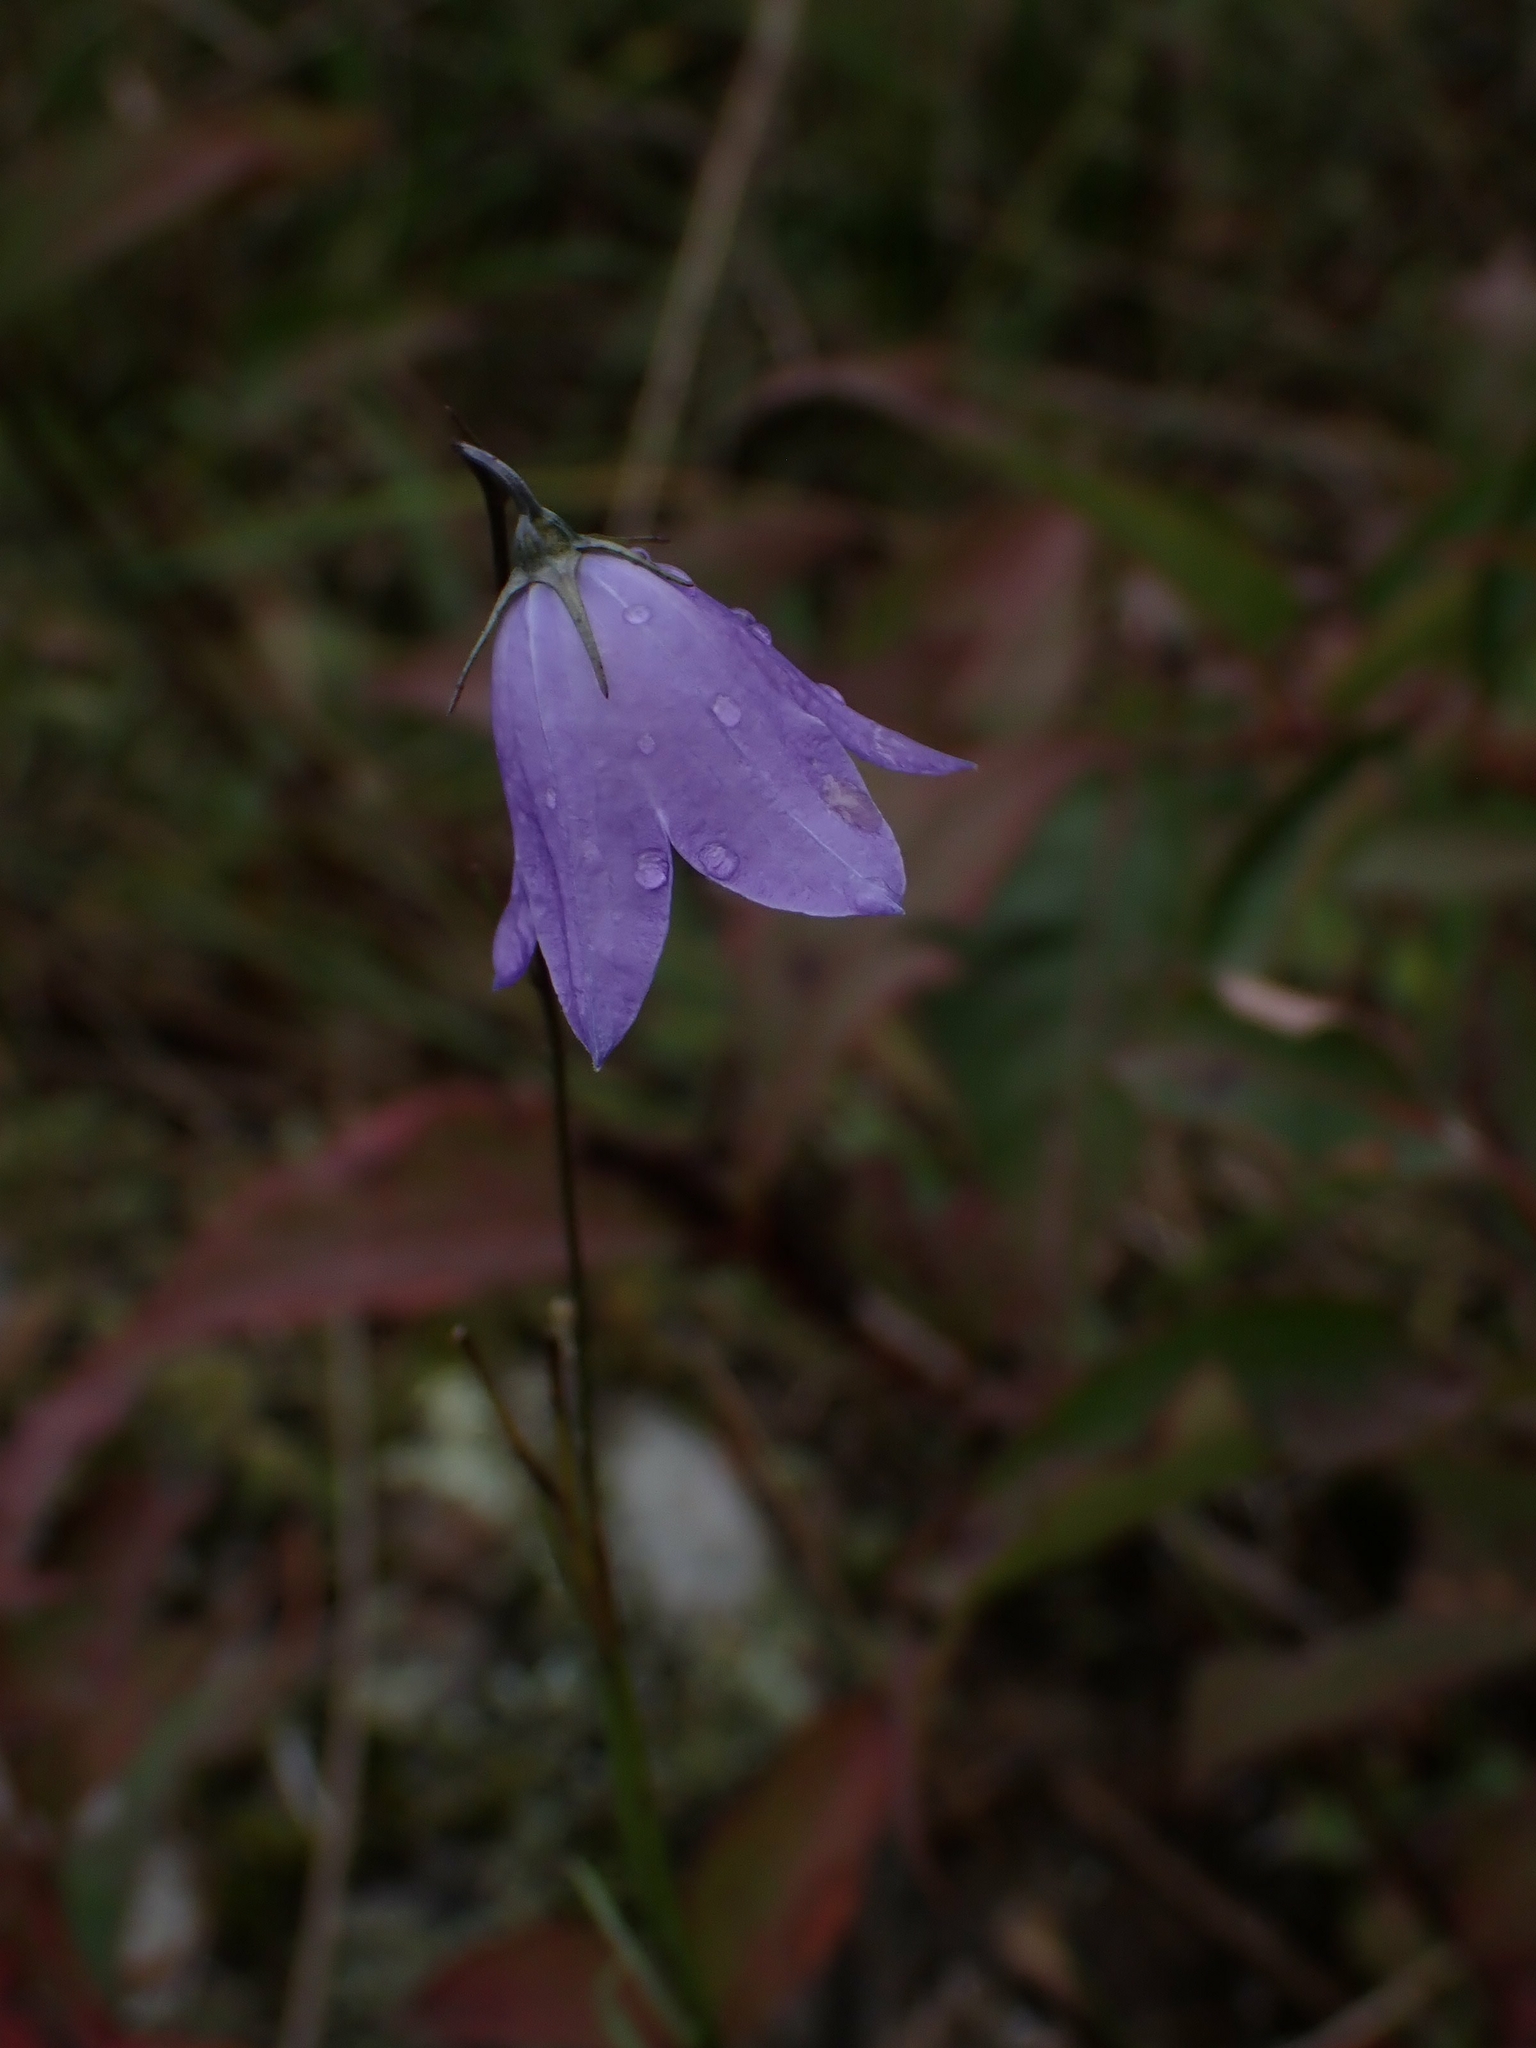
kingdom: Plantae
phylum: Tracheophyta
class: Magnoliopsida
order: Asterales
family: Campanulaceae
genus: Campanula
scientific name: Campanula petiolata
